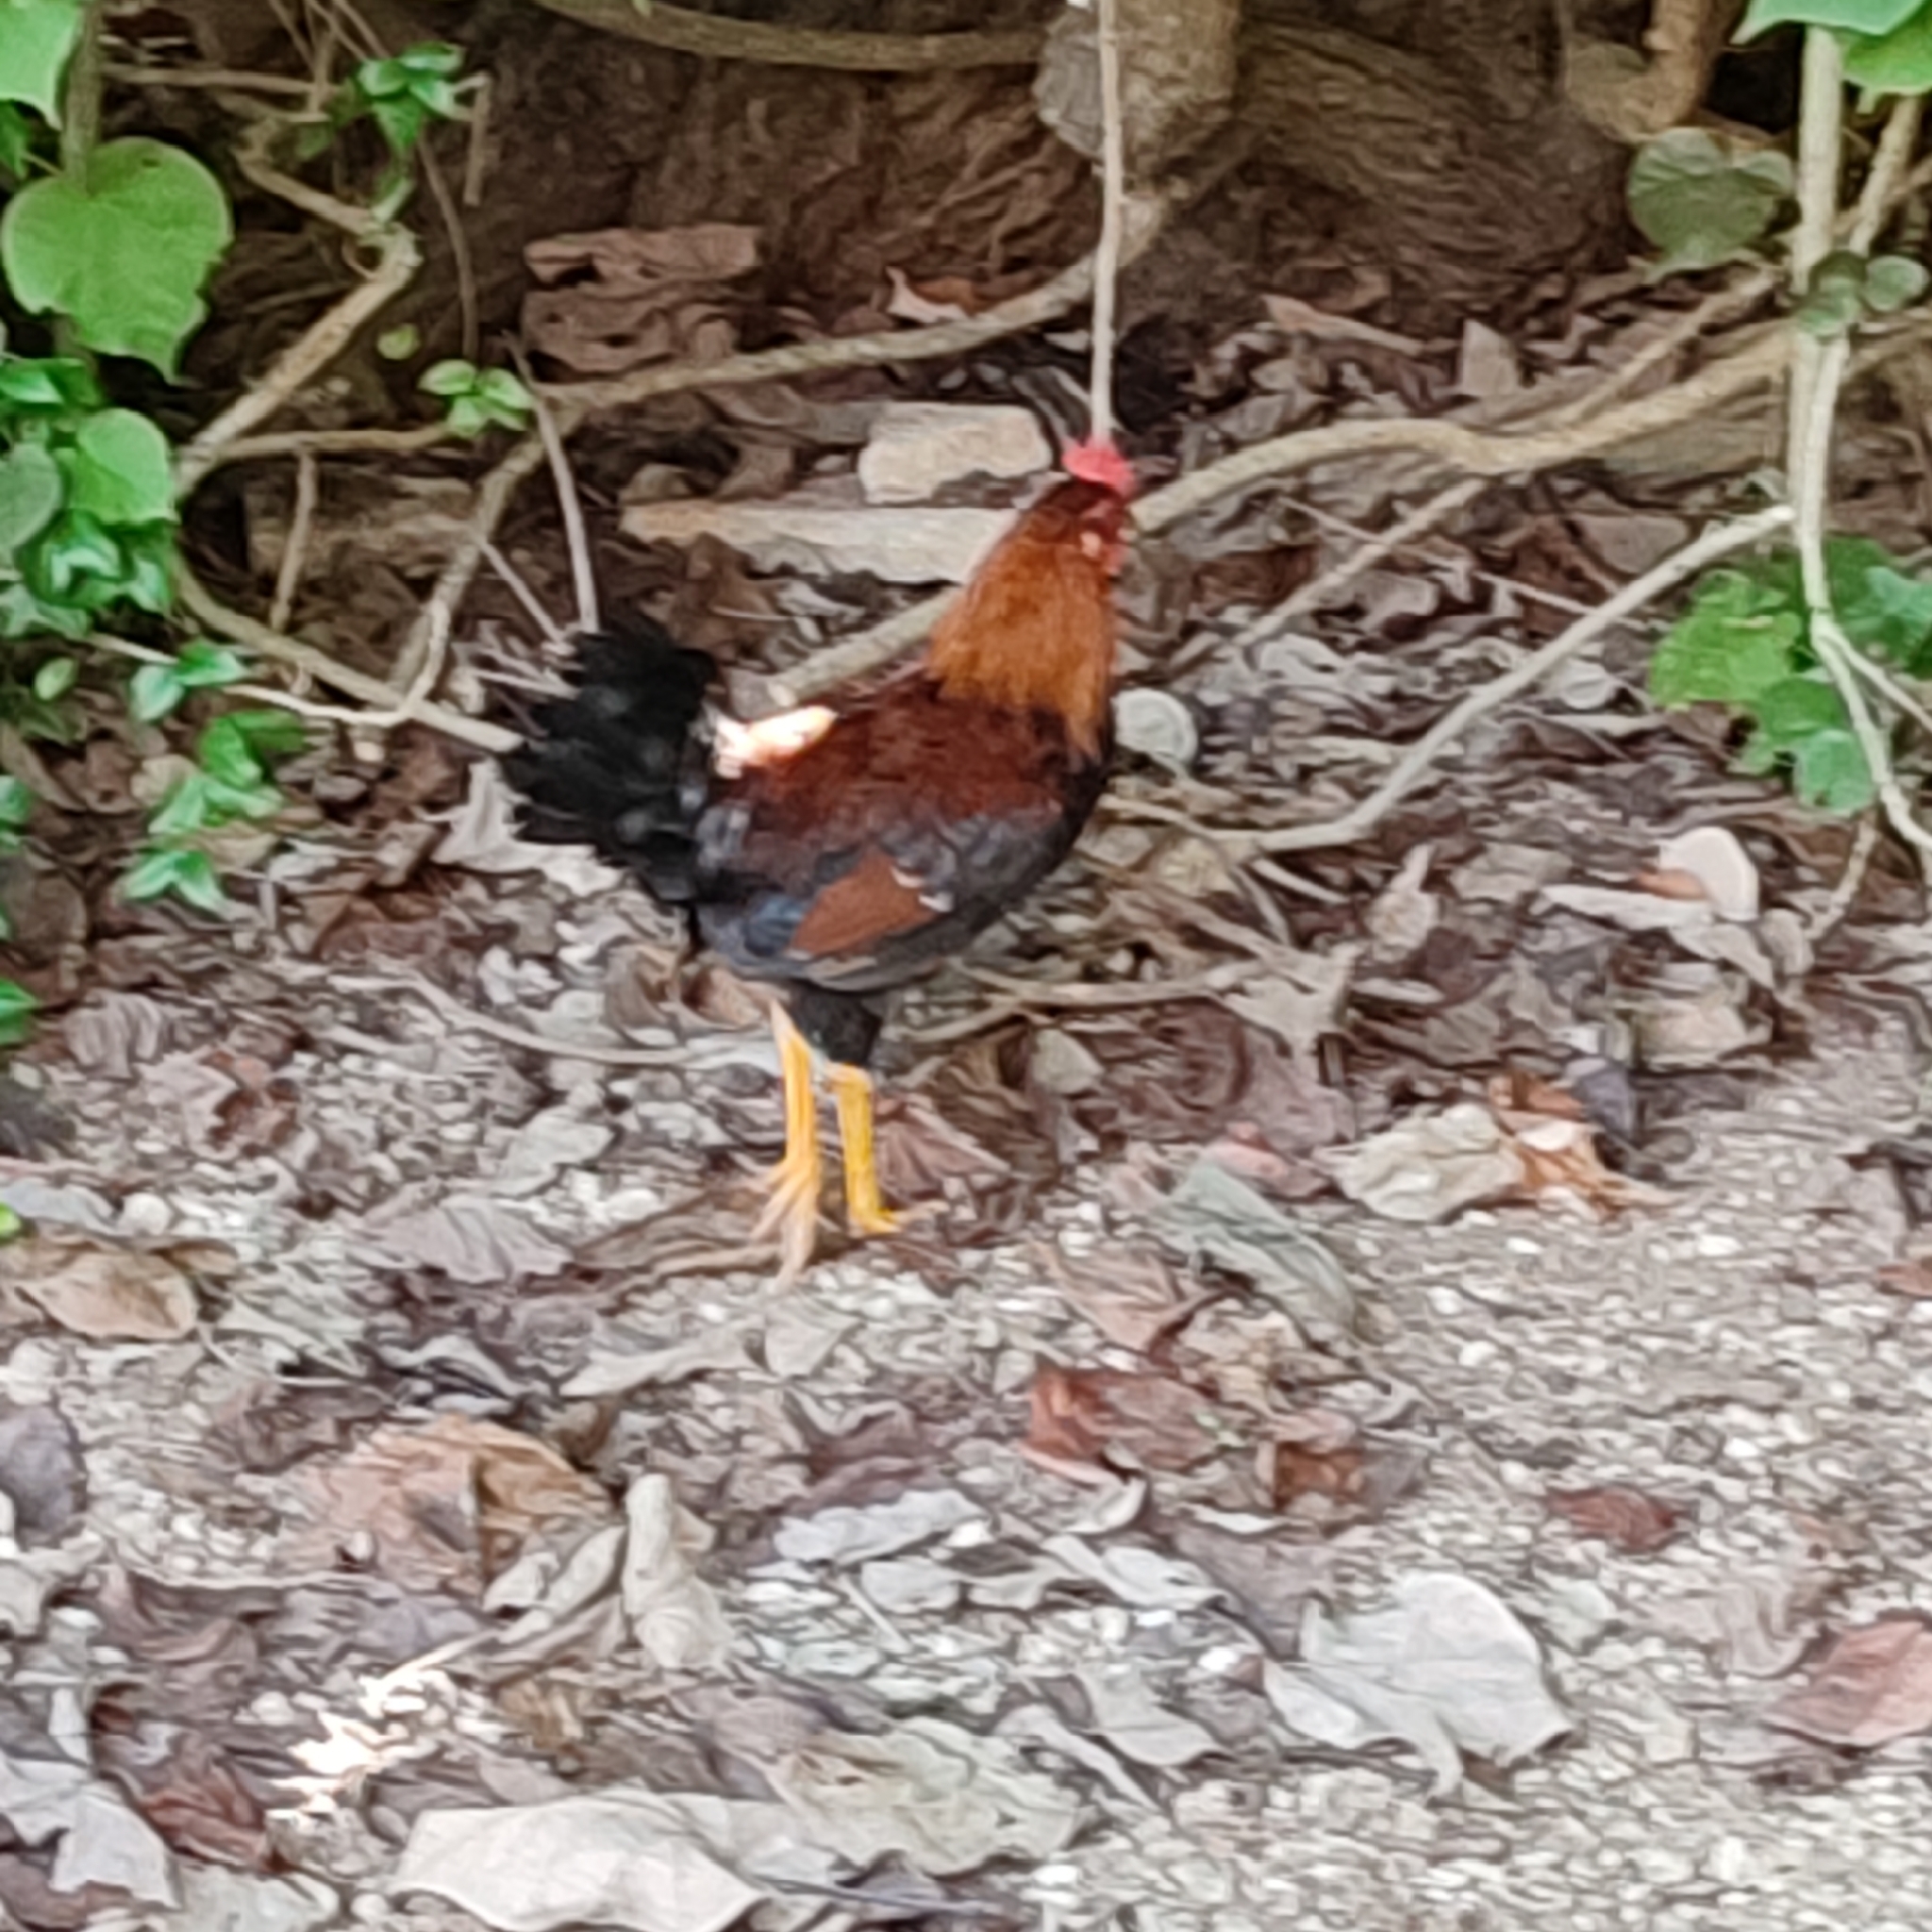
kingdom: Animalia
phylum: Chordata
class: Aves
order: Galliformes
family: Phasianidae
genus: Gallus
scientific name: Gallus gallus
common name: Red junglefowl
